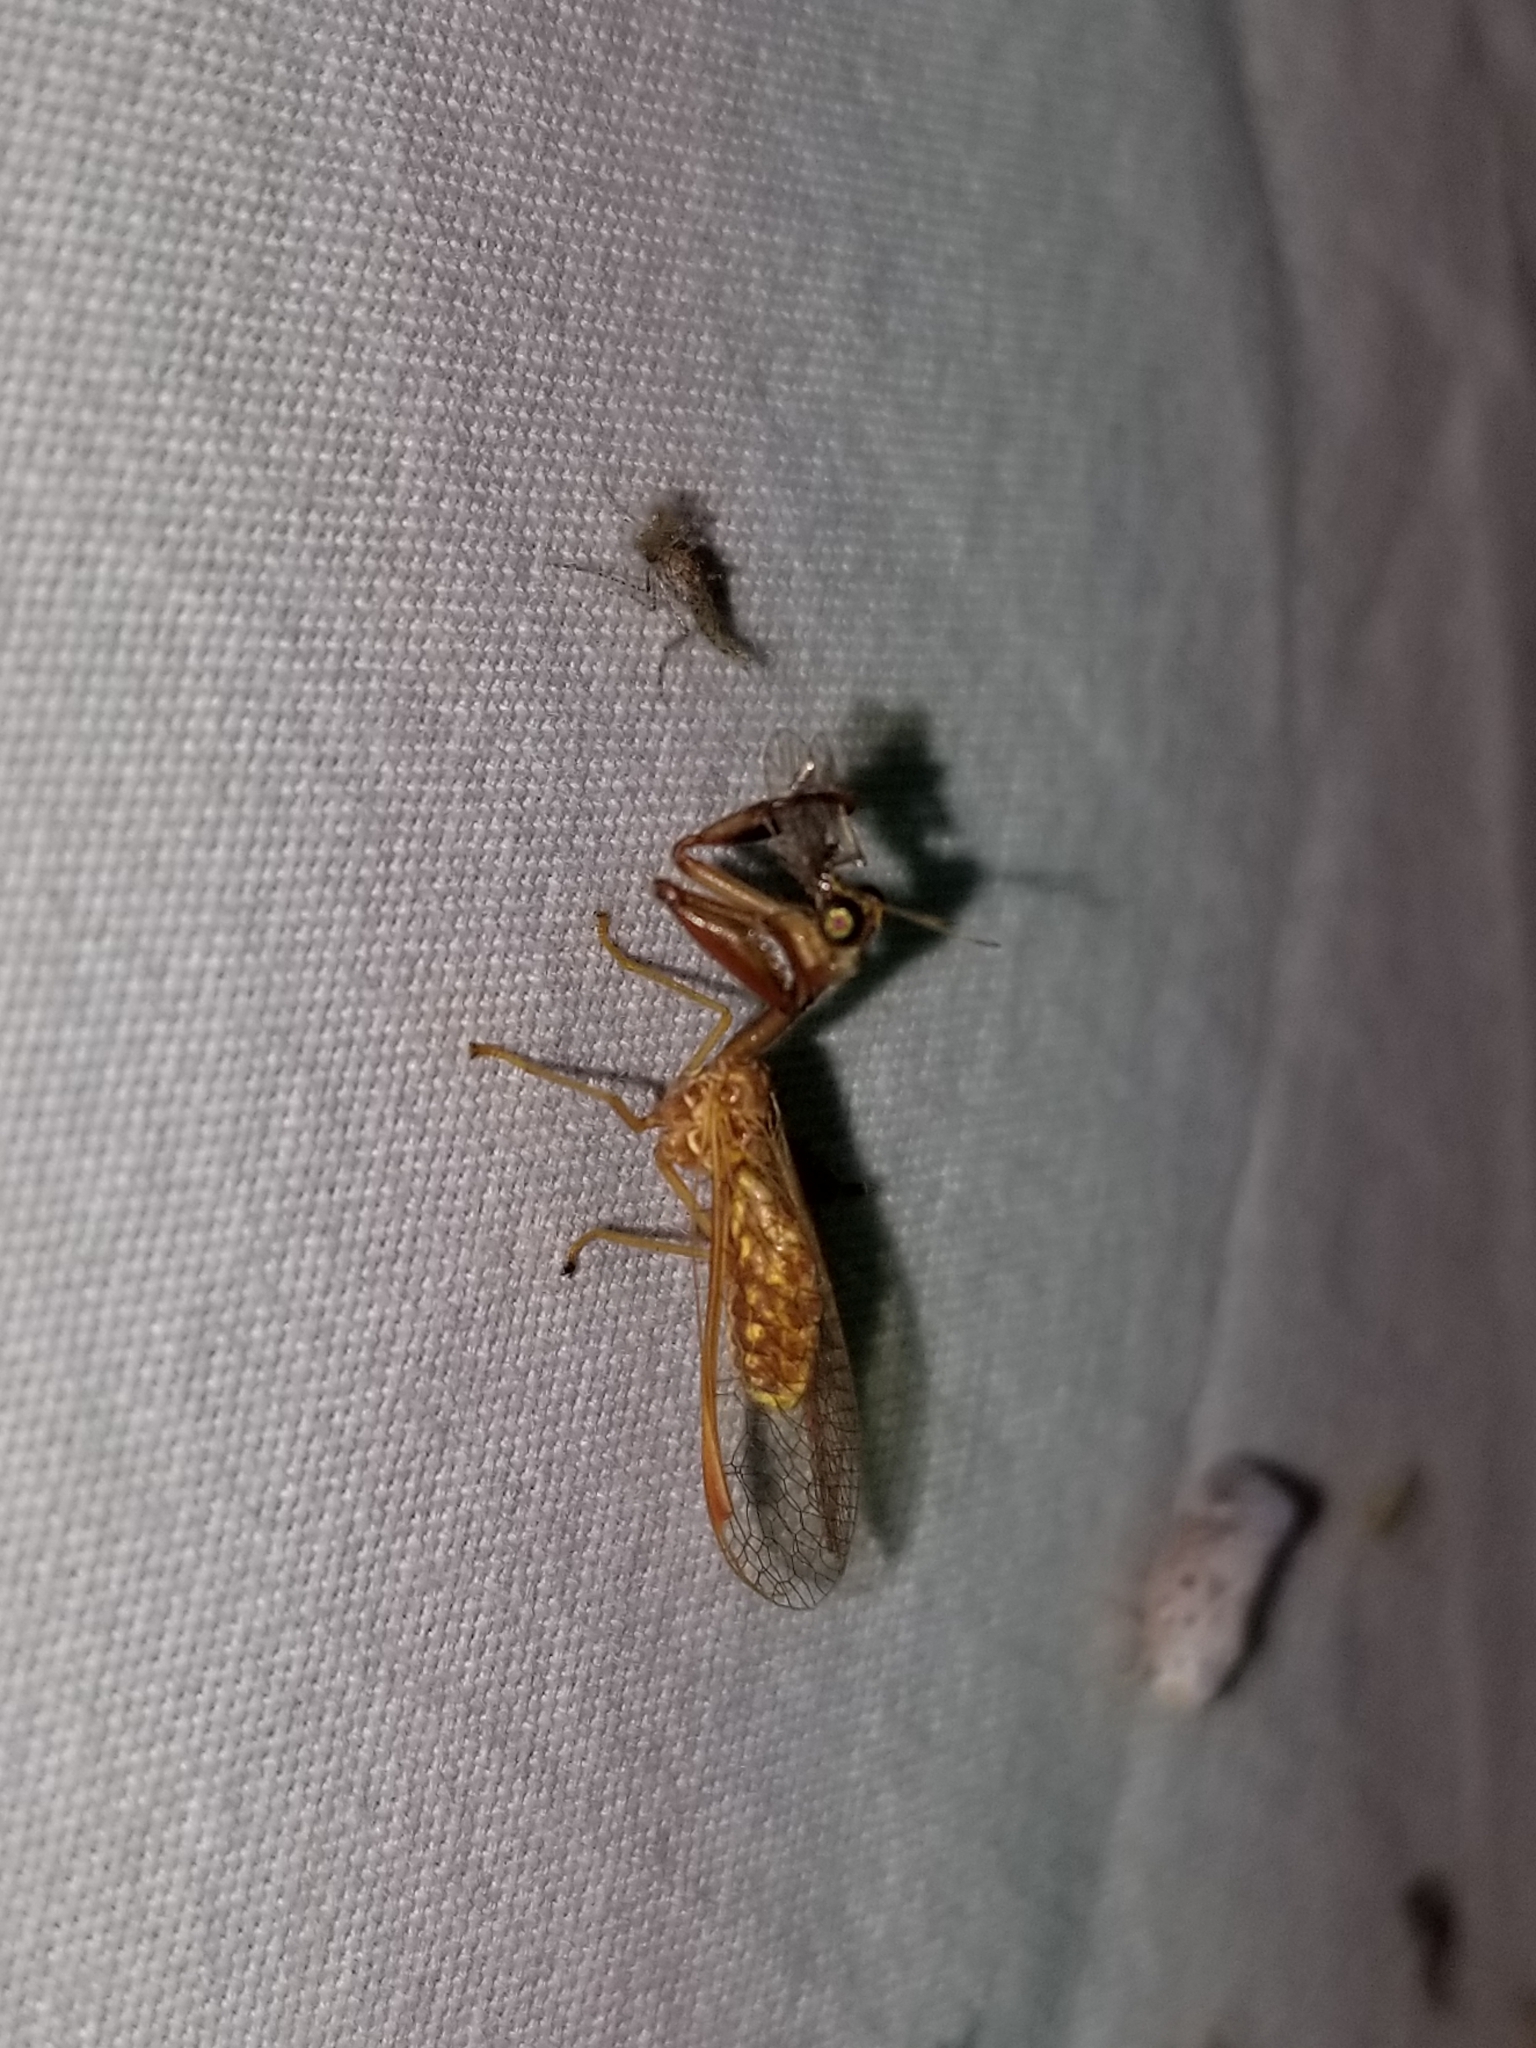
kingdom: Animalia
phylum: Arthropoda
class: Insecta
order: Neuroptera
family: Mantispidae
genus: Dicromantispa
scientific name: Dicromantispa sayi
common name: Say's mantidfly
